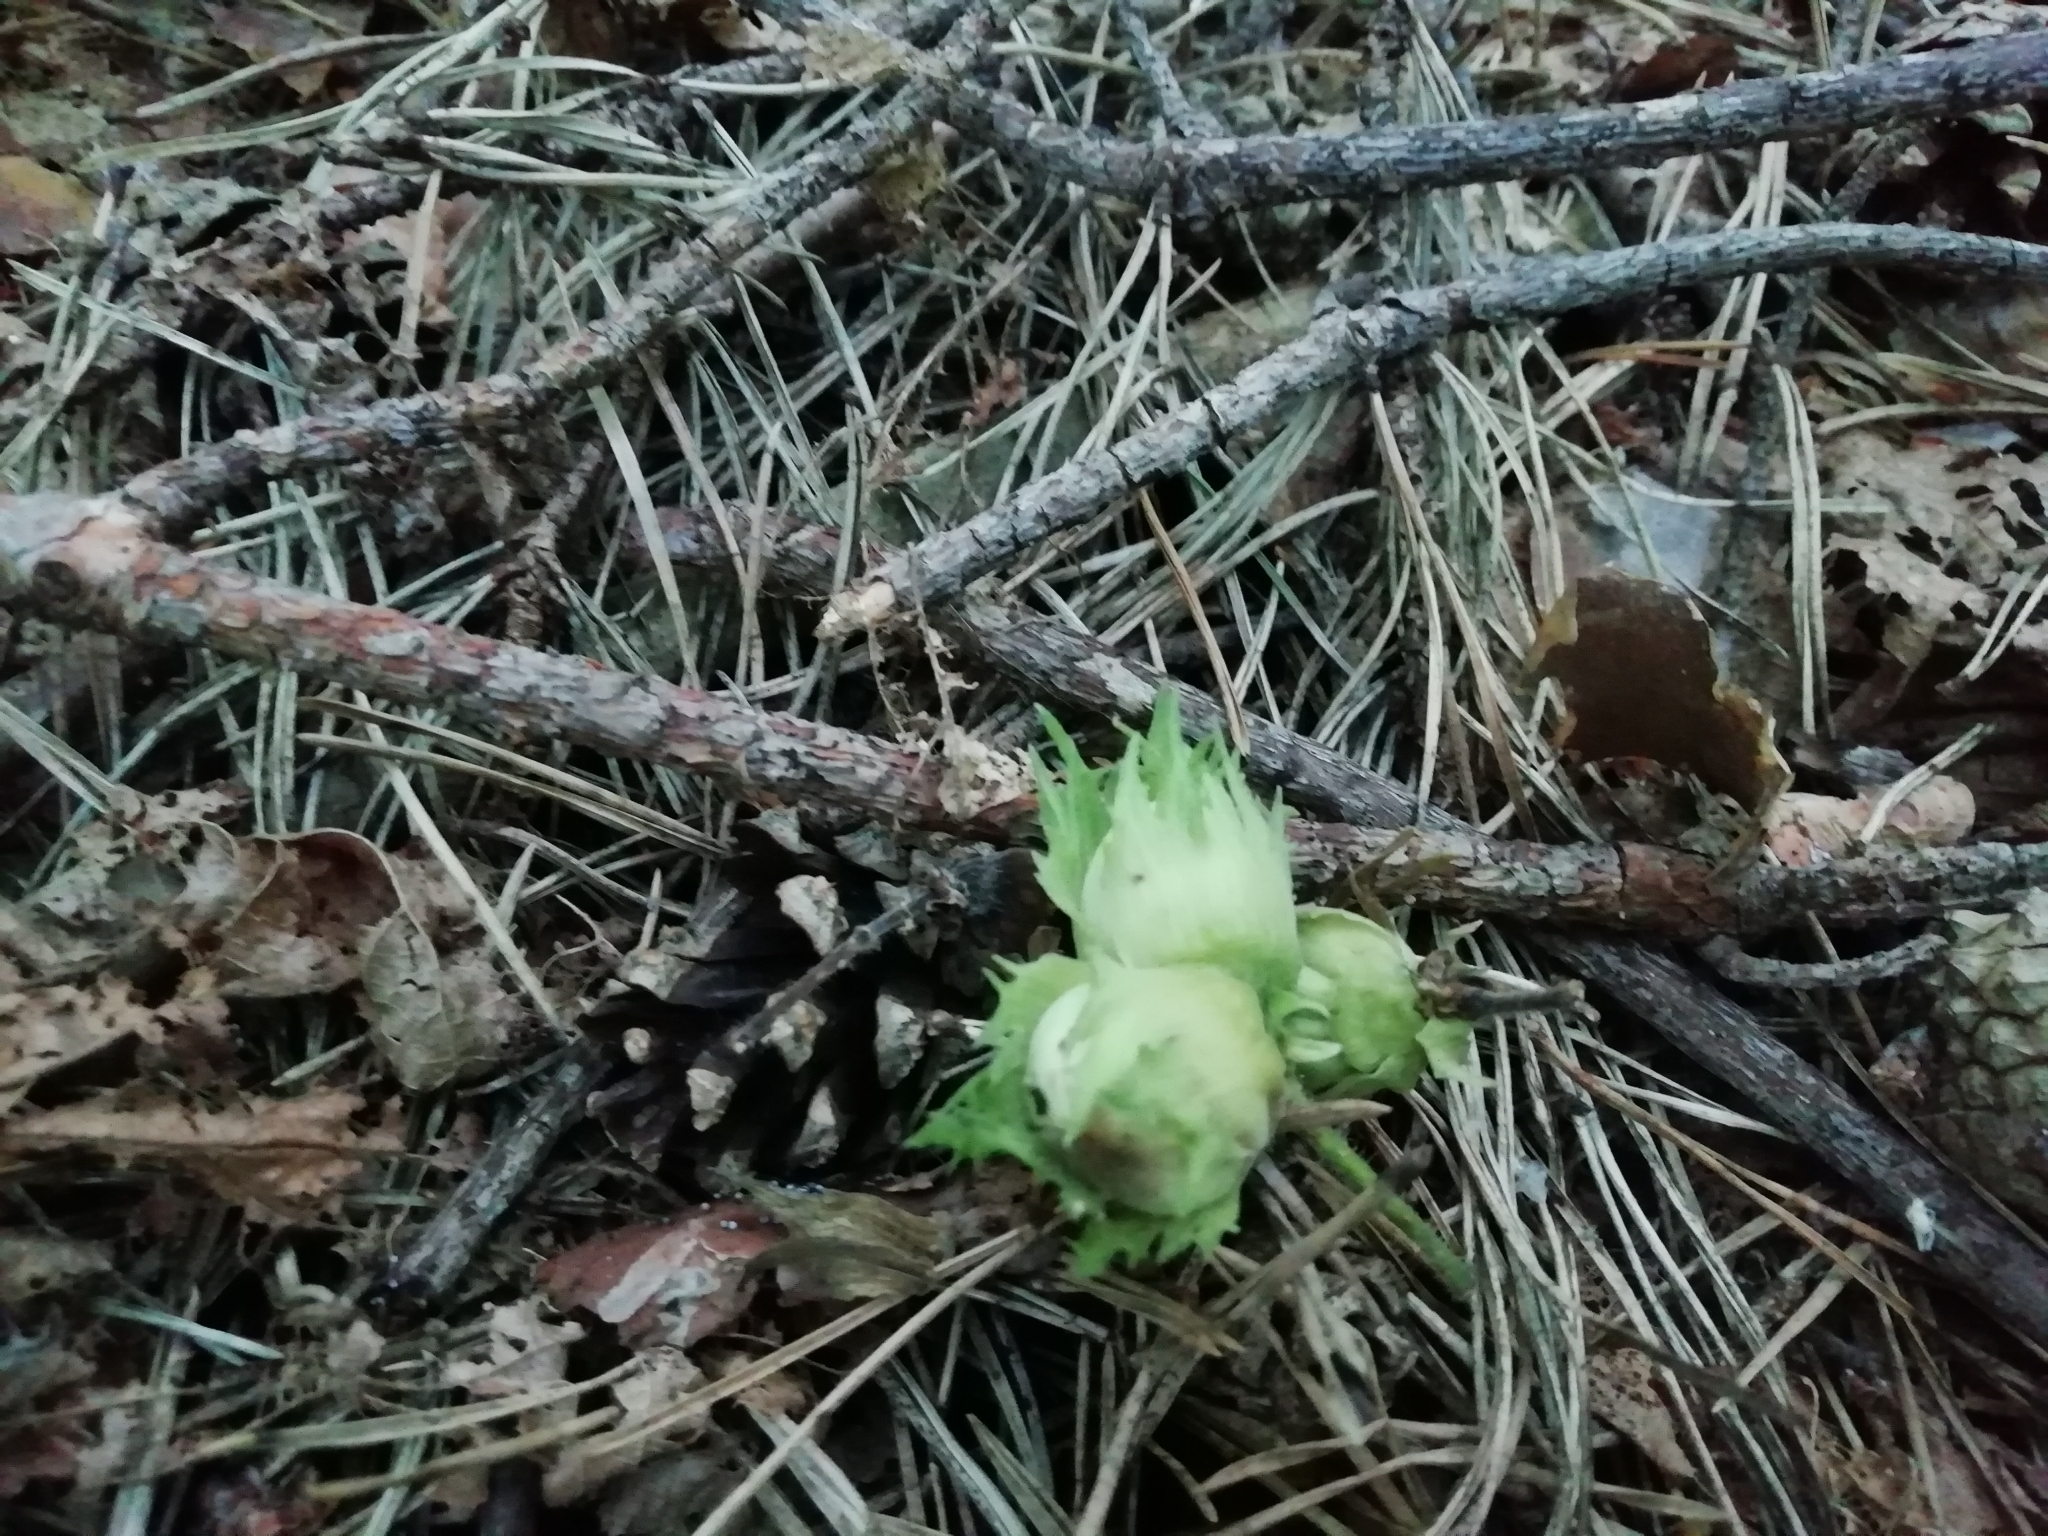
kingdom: Plantae
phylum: Tracheophyta
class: Magnoliopsida
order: Fagales
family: Betulaceae
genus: Corylus
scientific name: Corylus avellana
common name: European hazel
